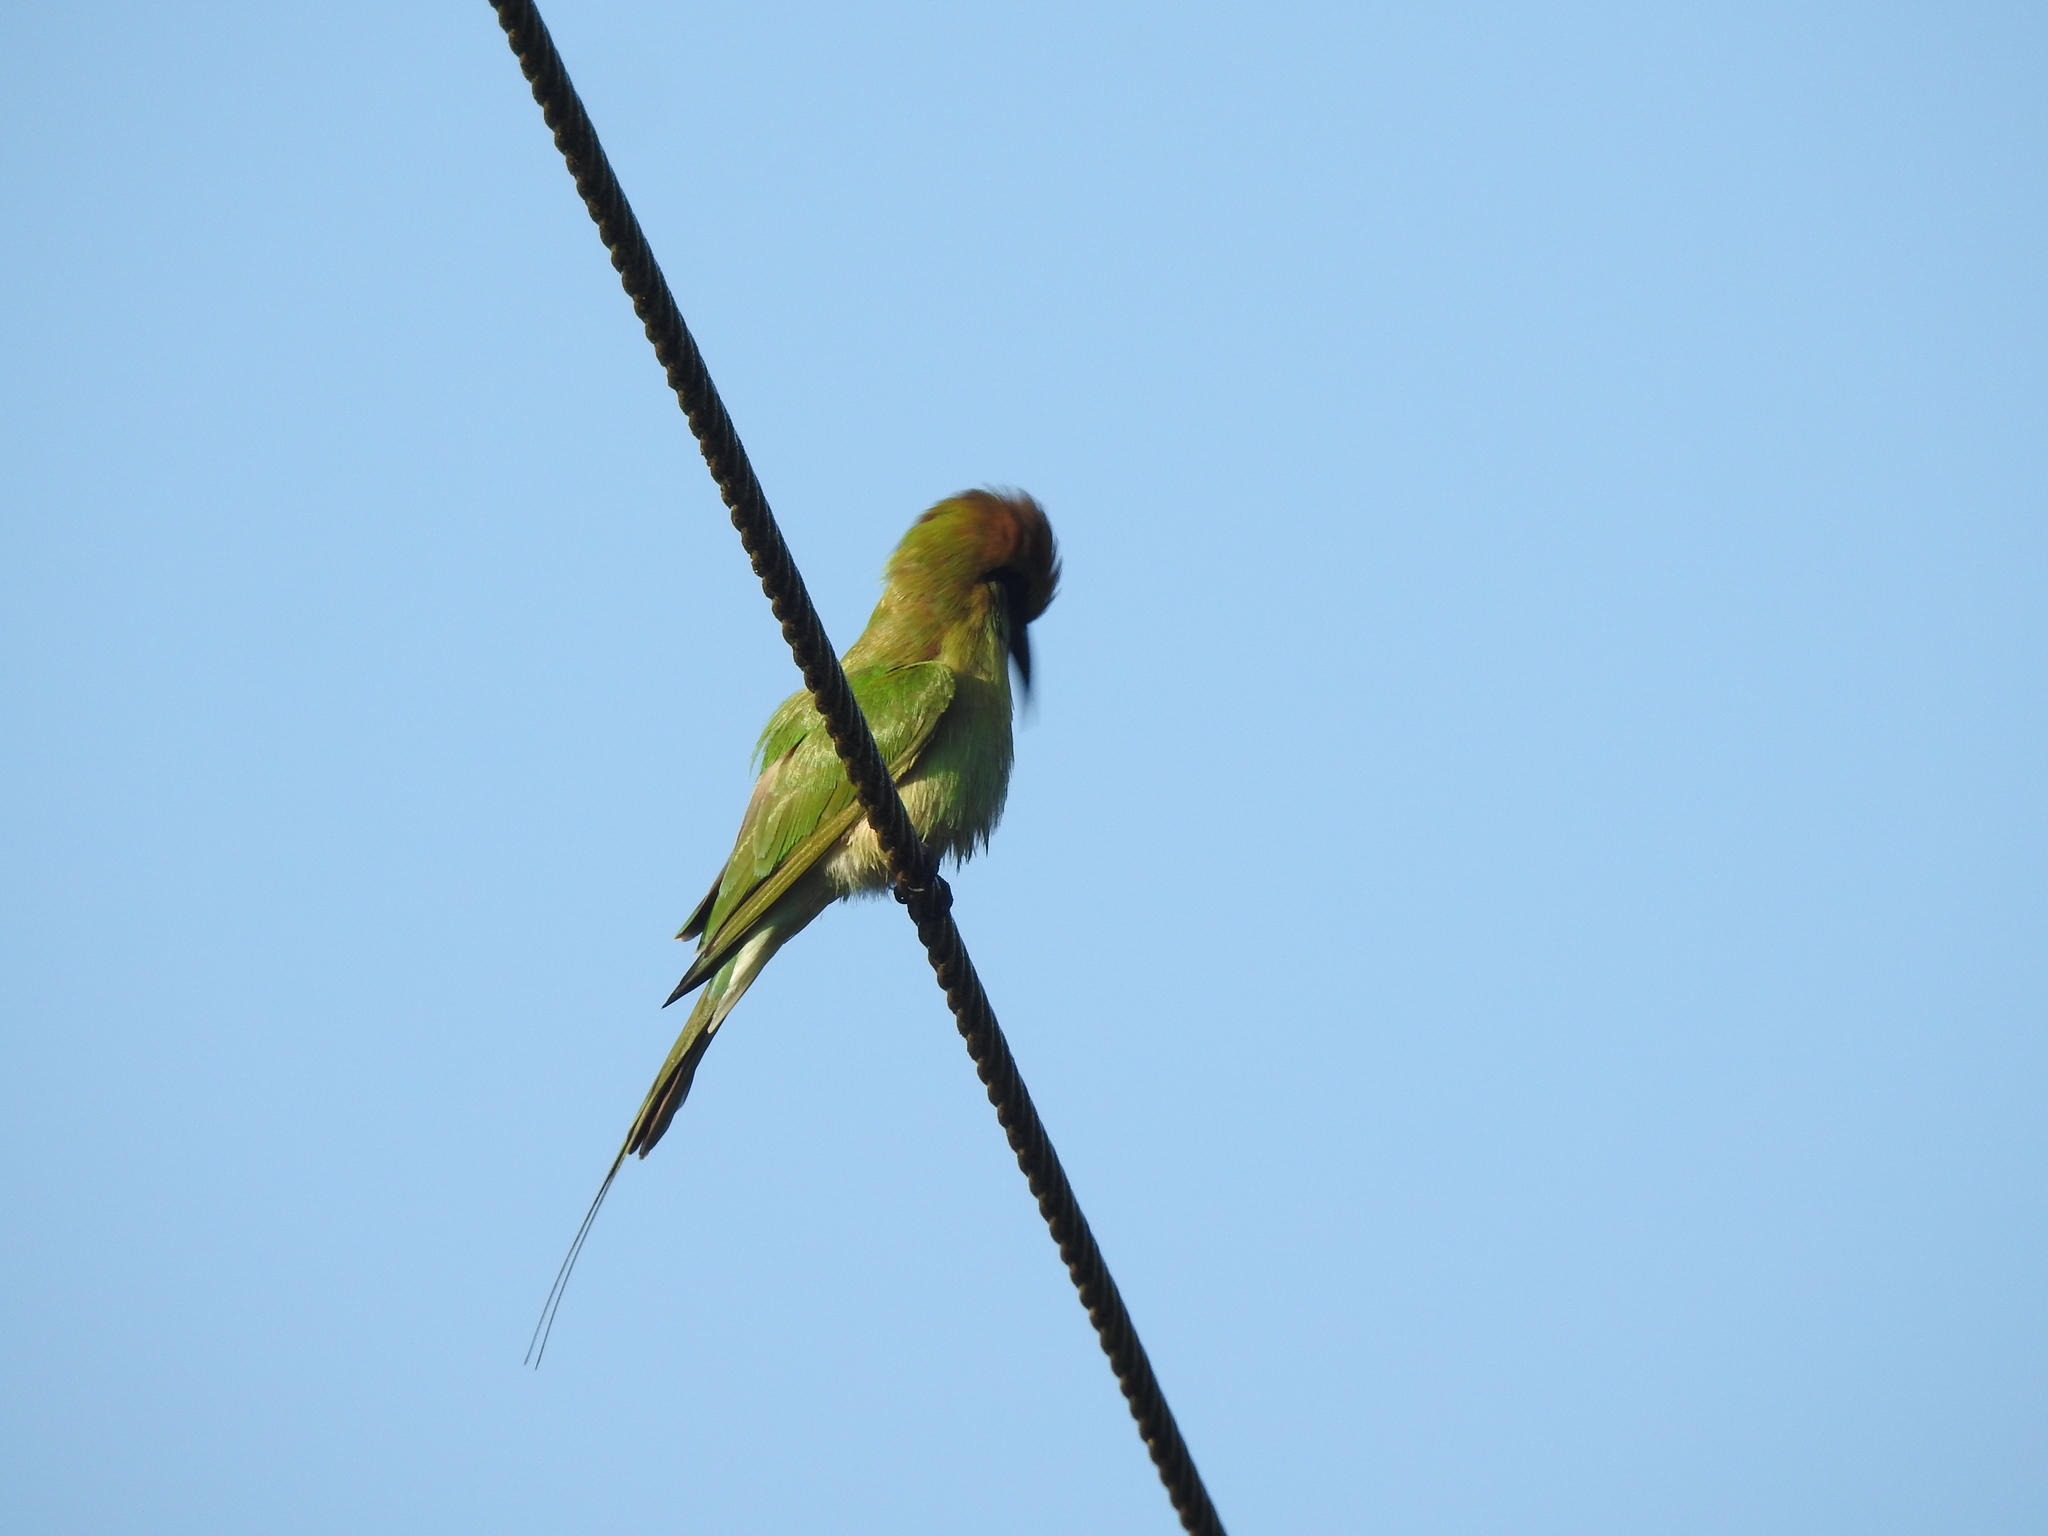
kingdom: Animalia
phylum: Chordata
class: Aves
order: Coraciiformes
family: Meropidae
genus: Merops
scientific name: Merops orientalis
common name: Green bee-eater
